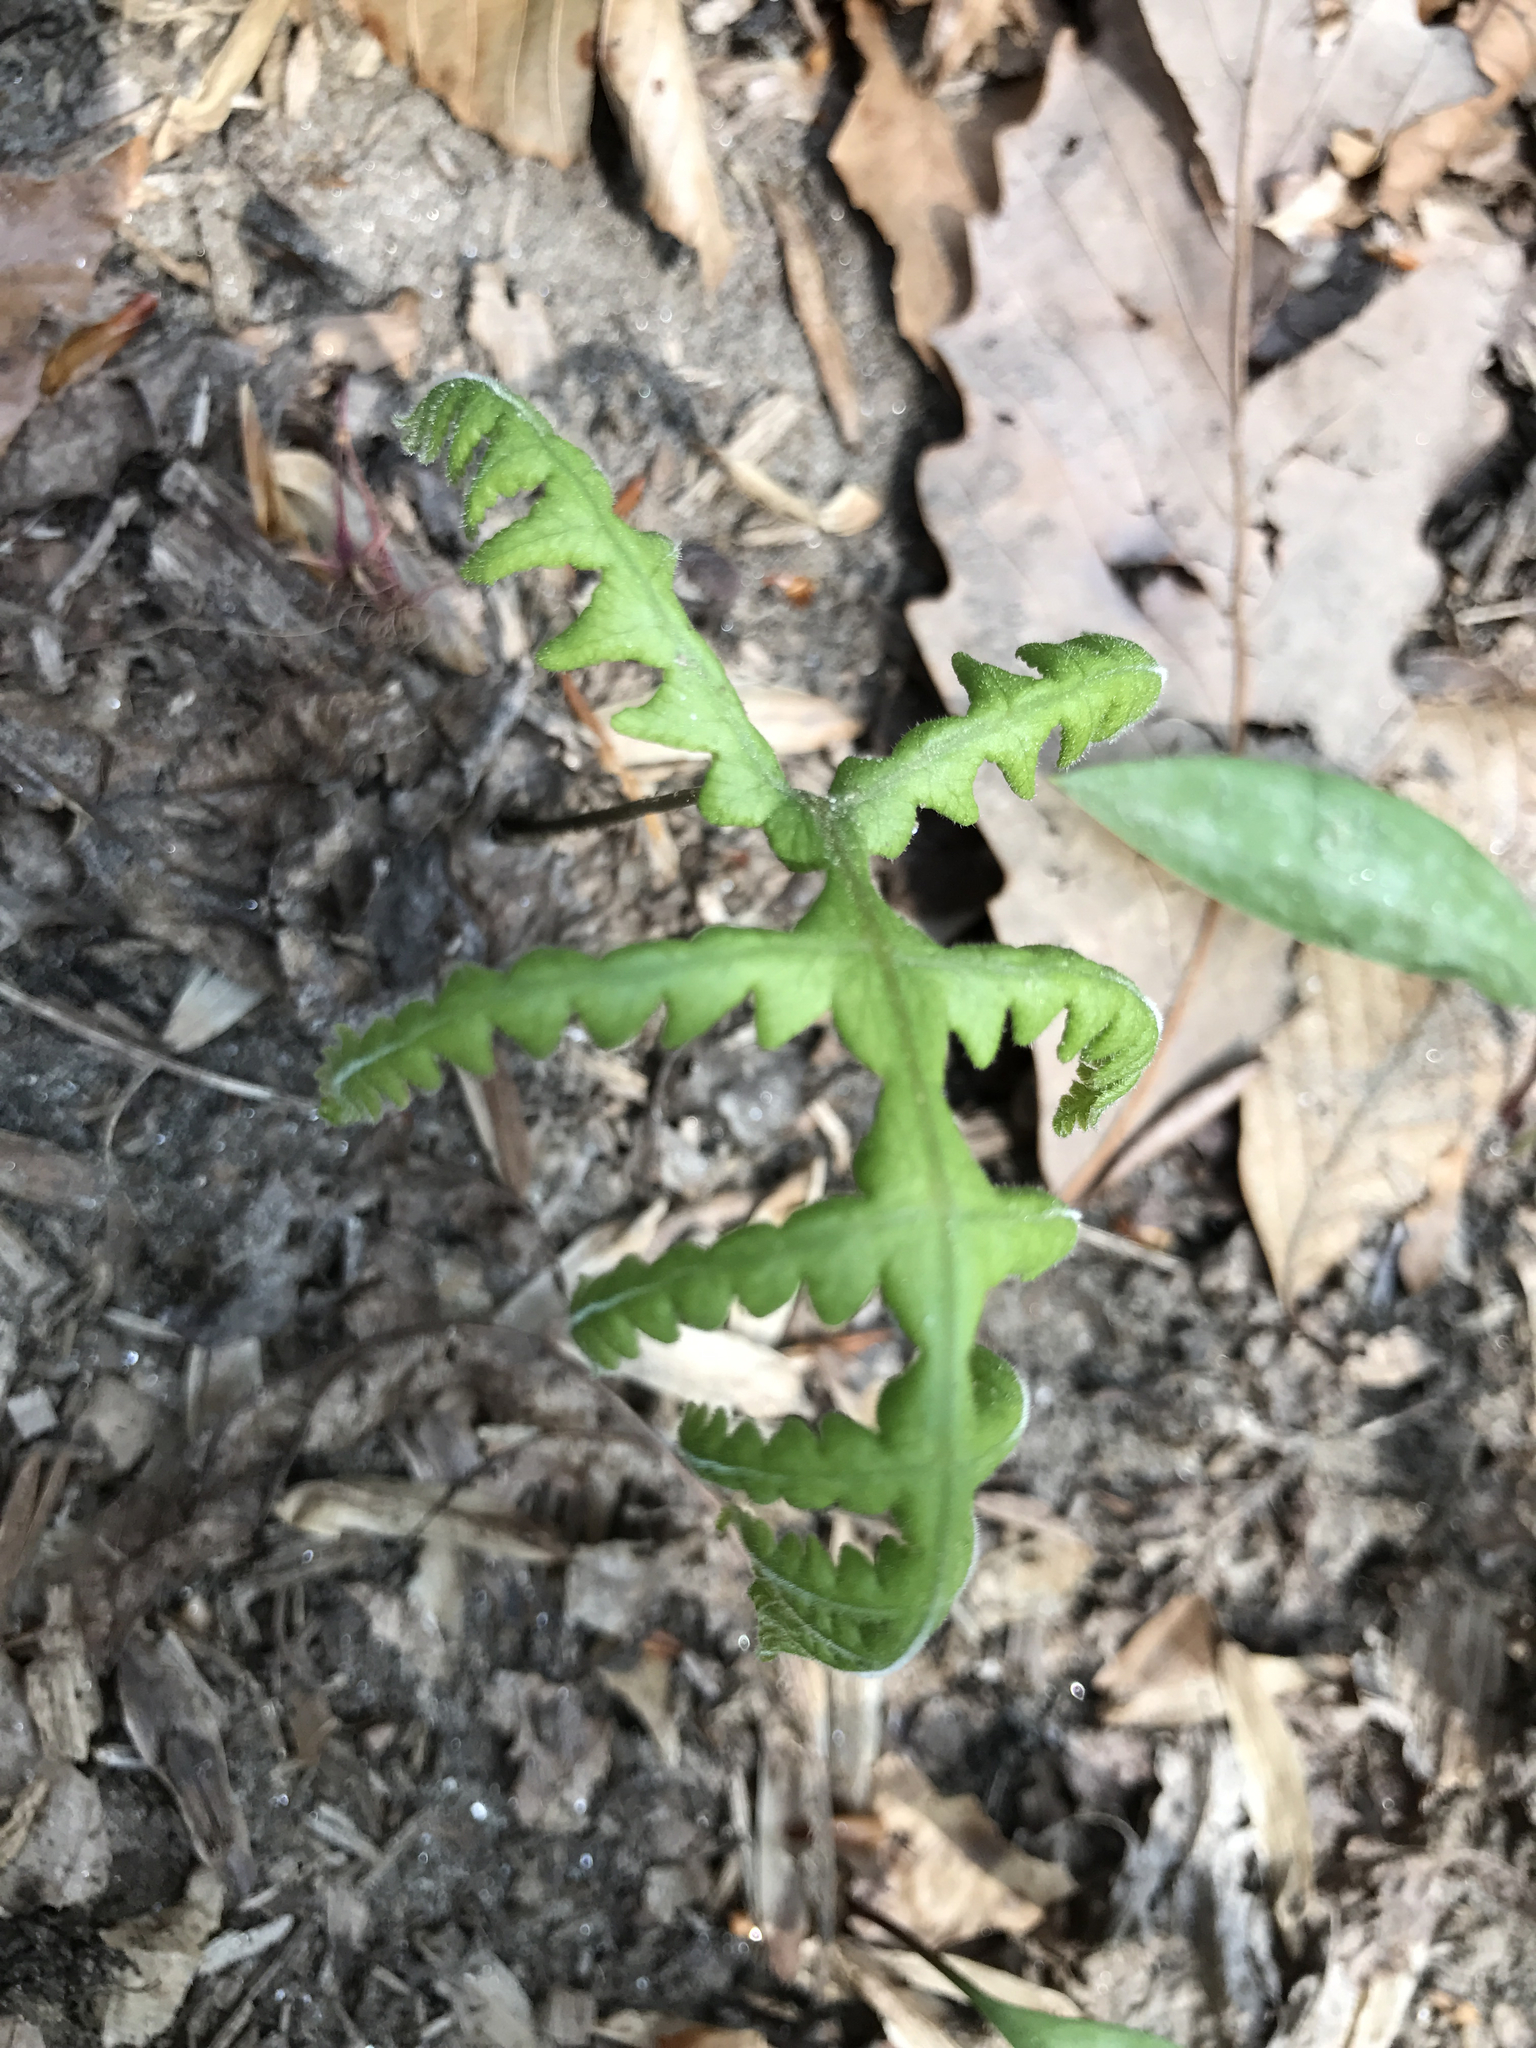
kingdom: Plantae
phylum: Tracheophyta
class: Polypodiopsida
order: Polypodiales
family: Thelypteridaceae
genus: Phegopteris
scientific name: Phegopteris hexagonoptera
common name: Broad beech fern
